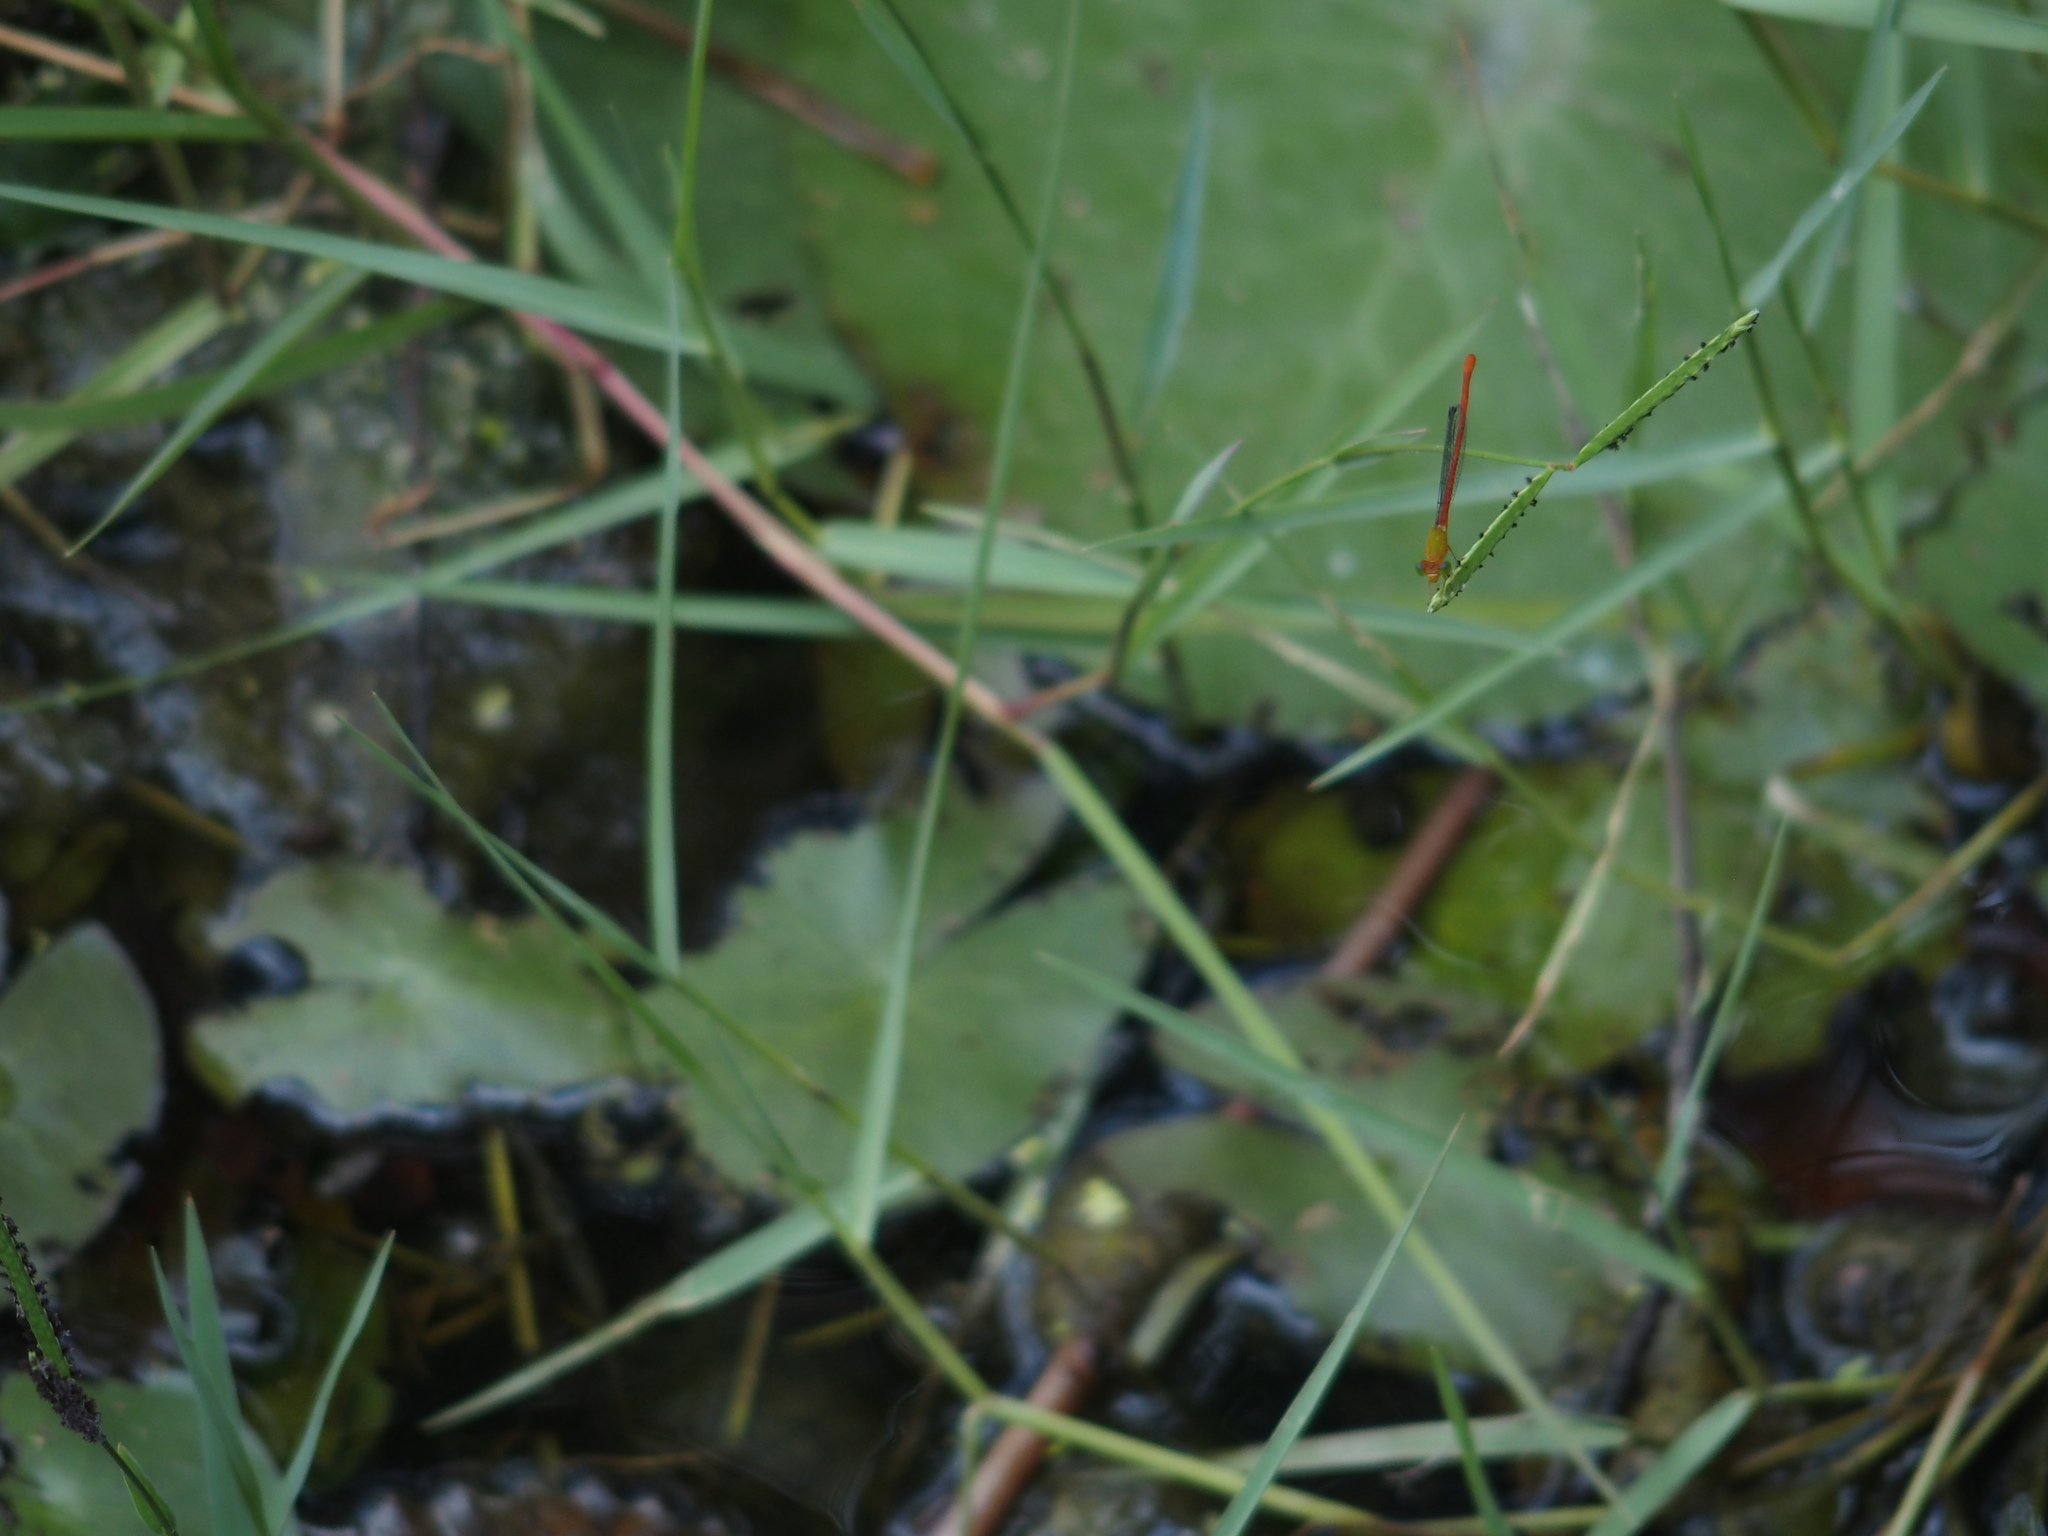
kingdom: Animalia
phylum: Arthropoda
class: Insecta
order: Odonata
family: Coenagrionidae
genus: Ceriagrion
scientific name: Ceriagrion auranticum
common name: Orange-tailed sprite
